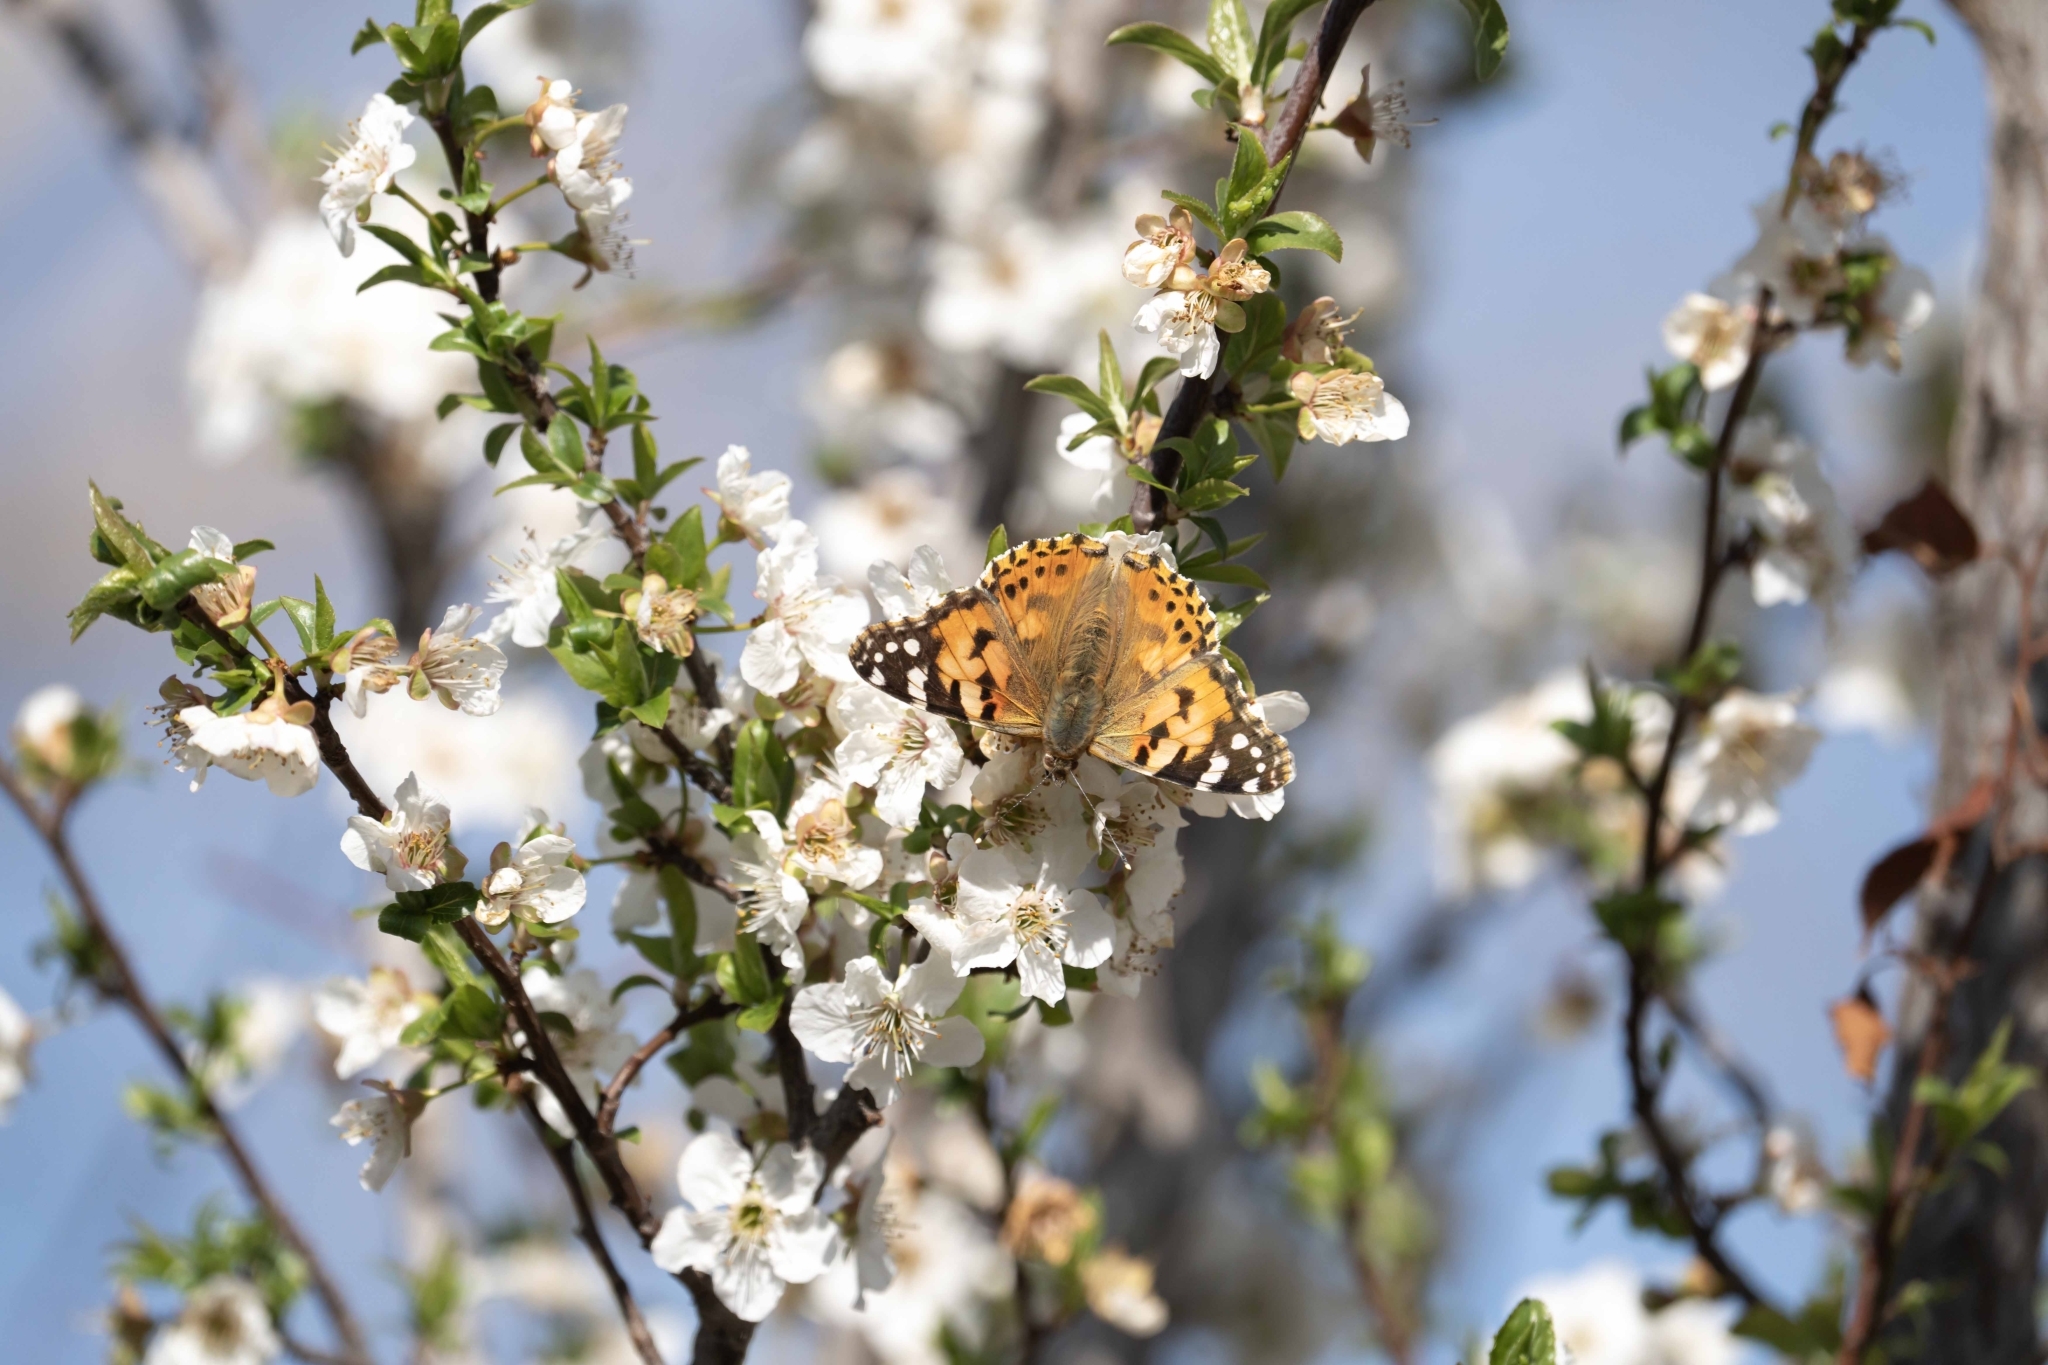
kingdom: Animalia
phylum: Arthropoda
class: Insecta
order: Lepidoptera
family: Nymphalidae
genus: Vanessa
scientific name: Vanessa cardui
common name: Painted lady
